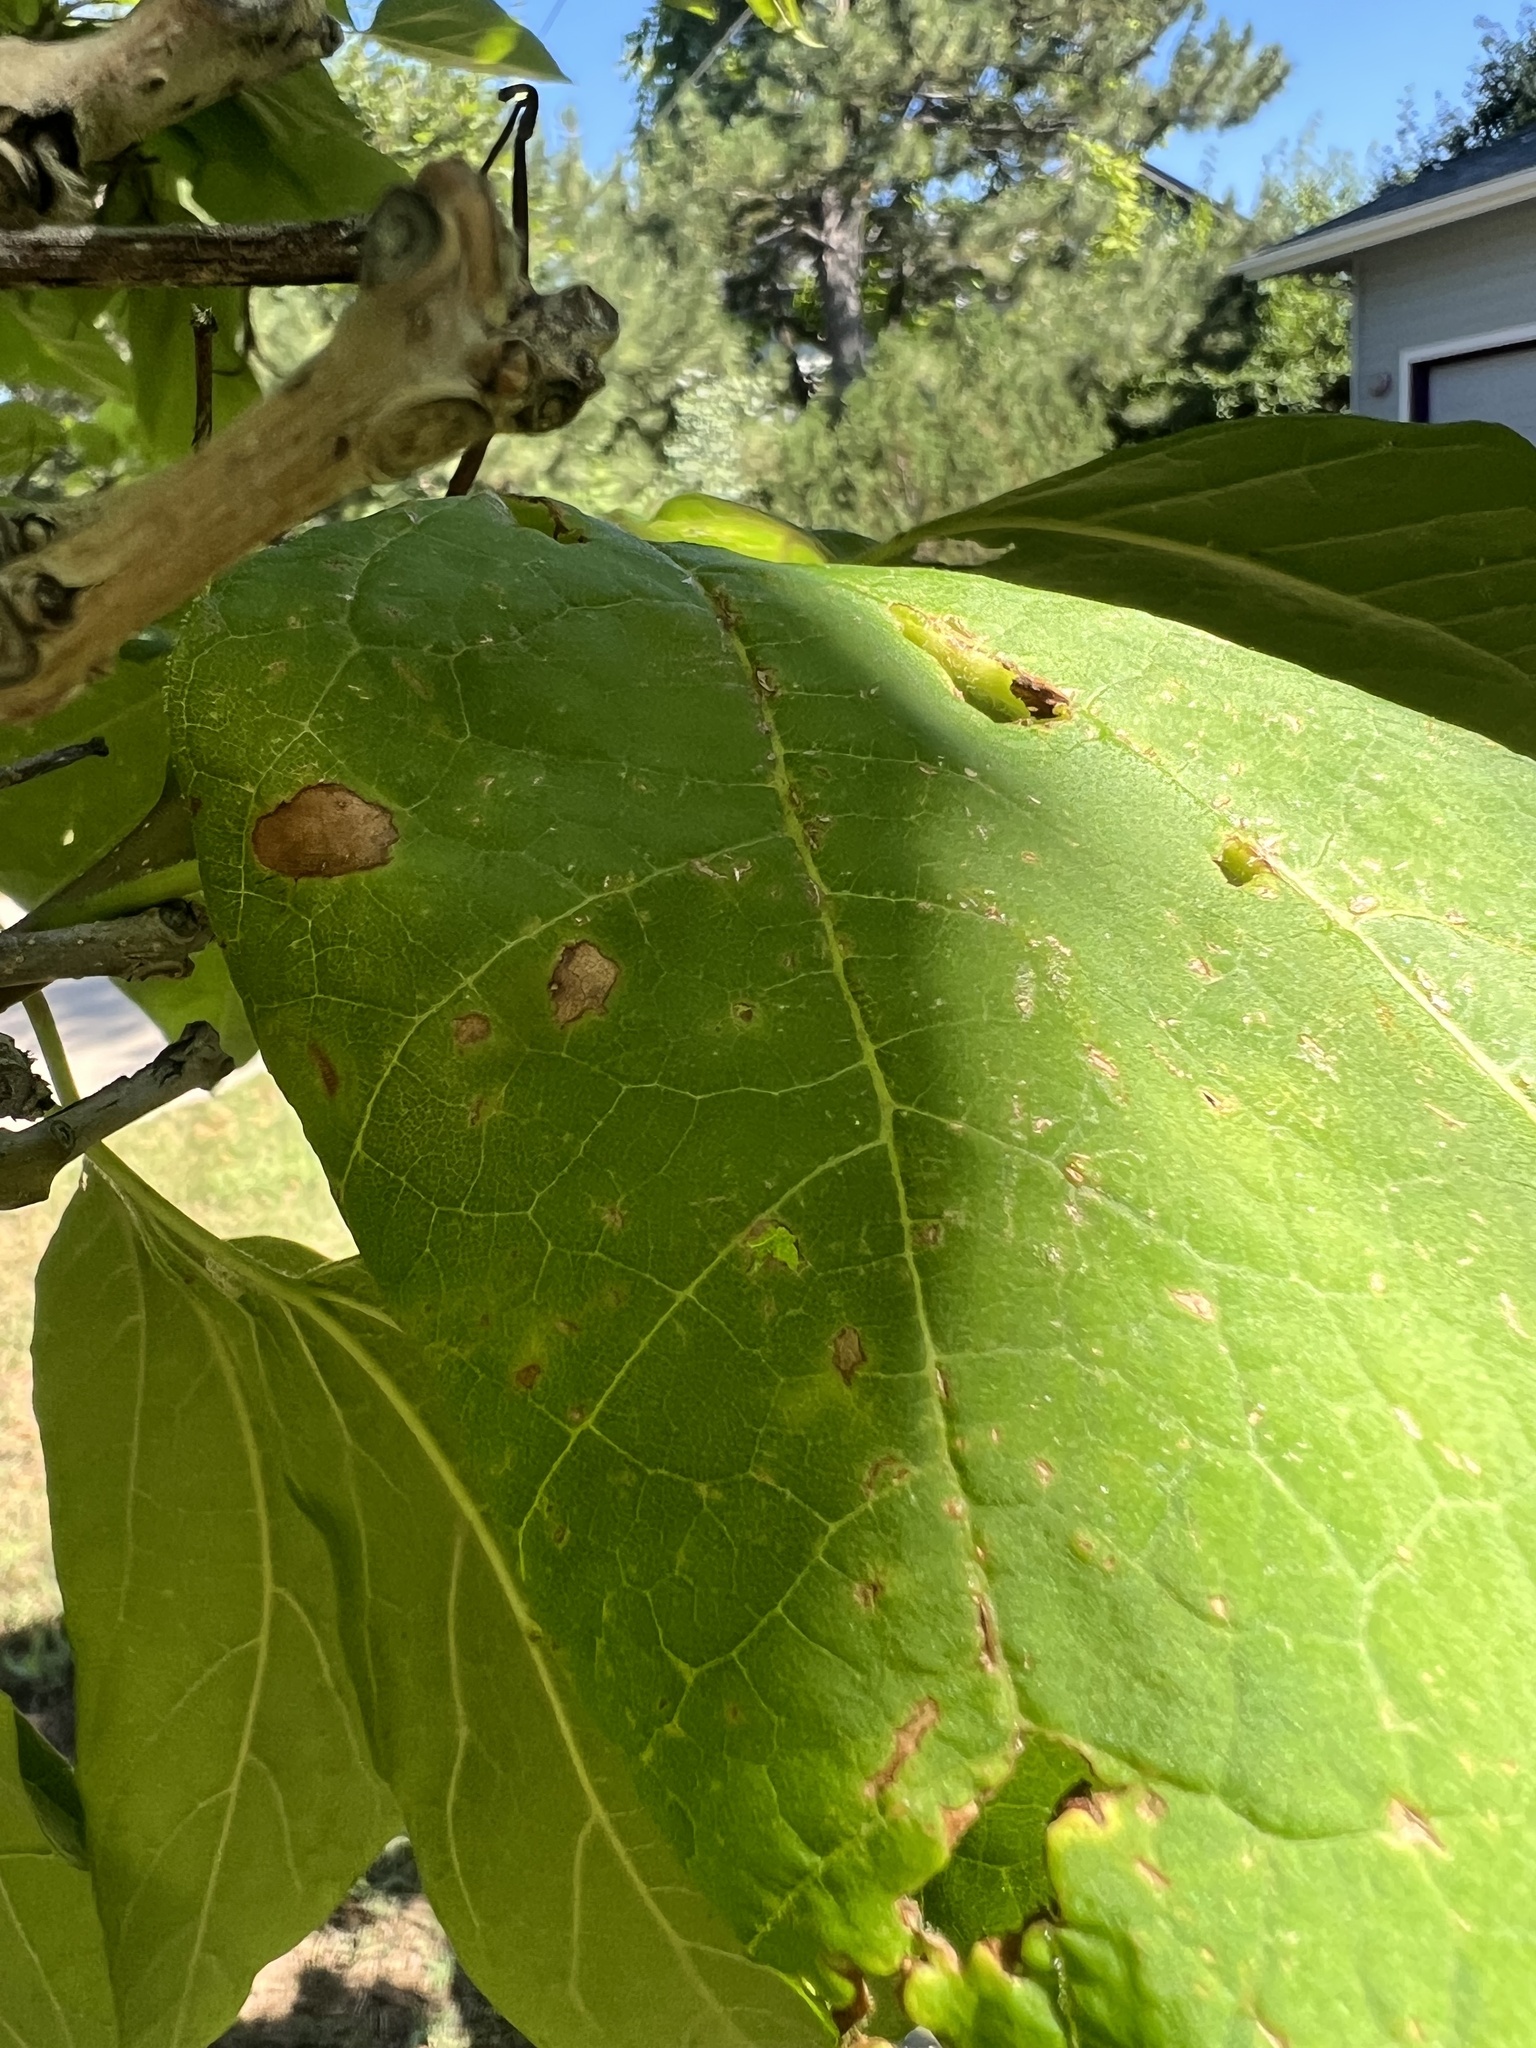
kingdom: Fungi
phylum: Ascomycota
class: Dothideomycetes
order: Pleosporales
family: Pleosporaceae
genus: Alternaria
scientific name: Alternaria catalpae
